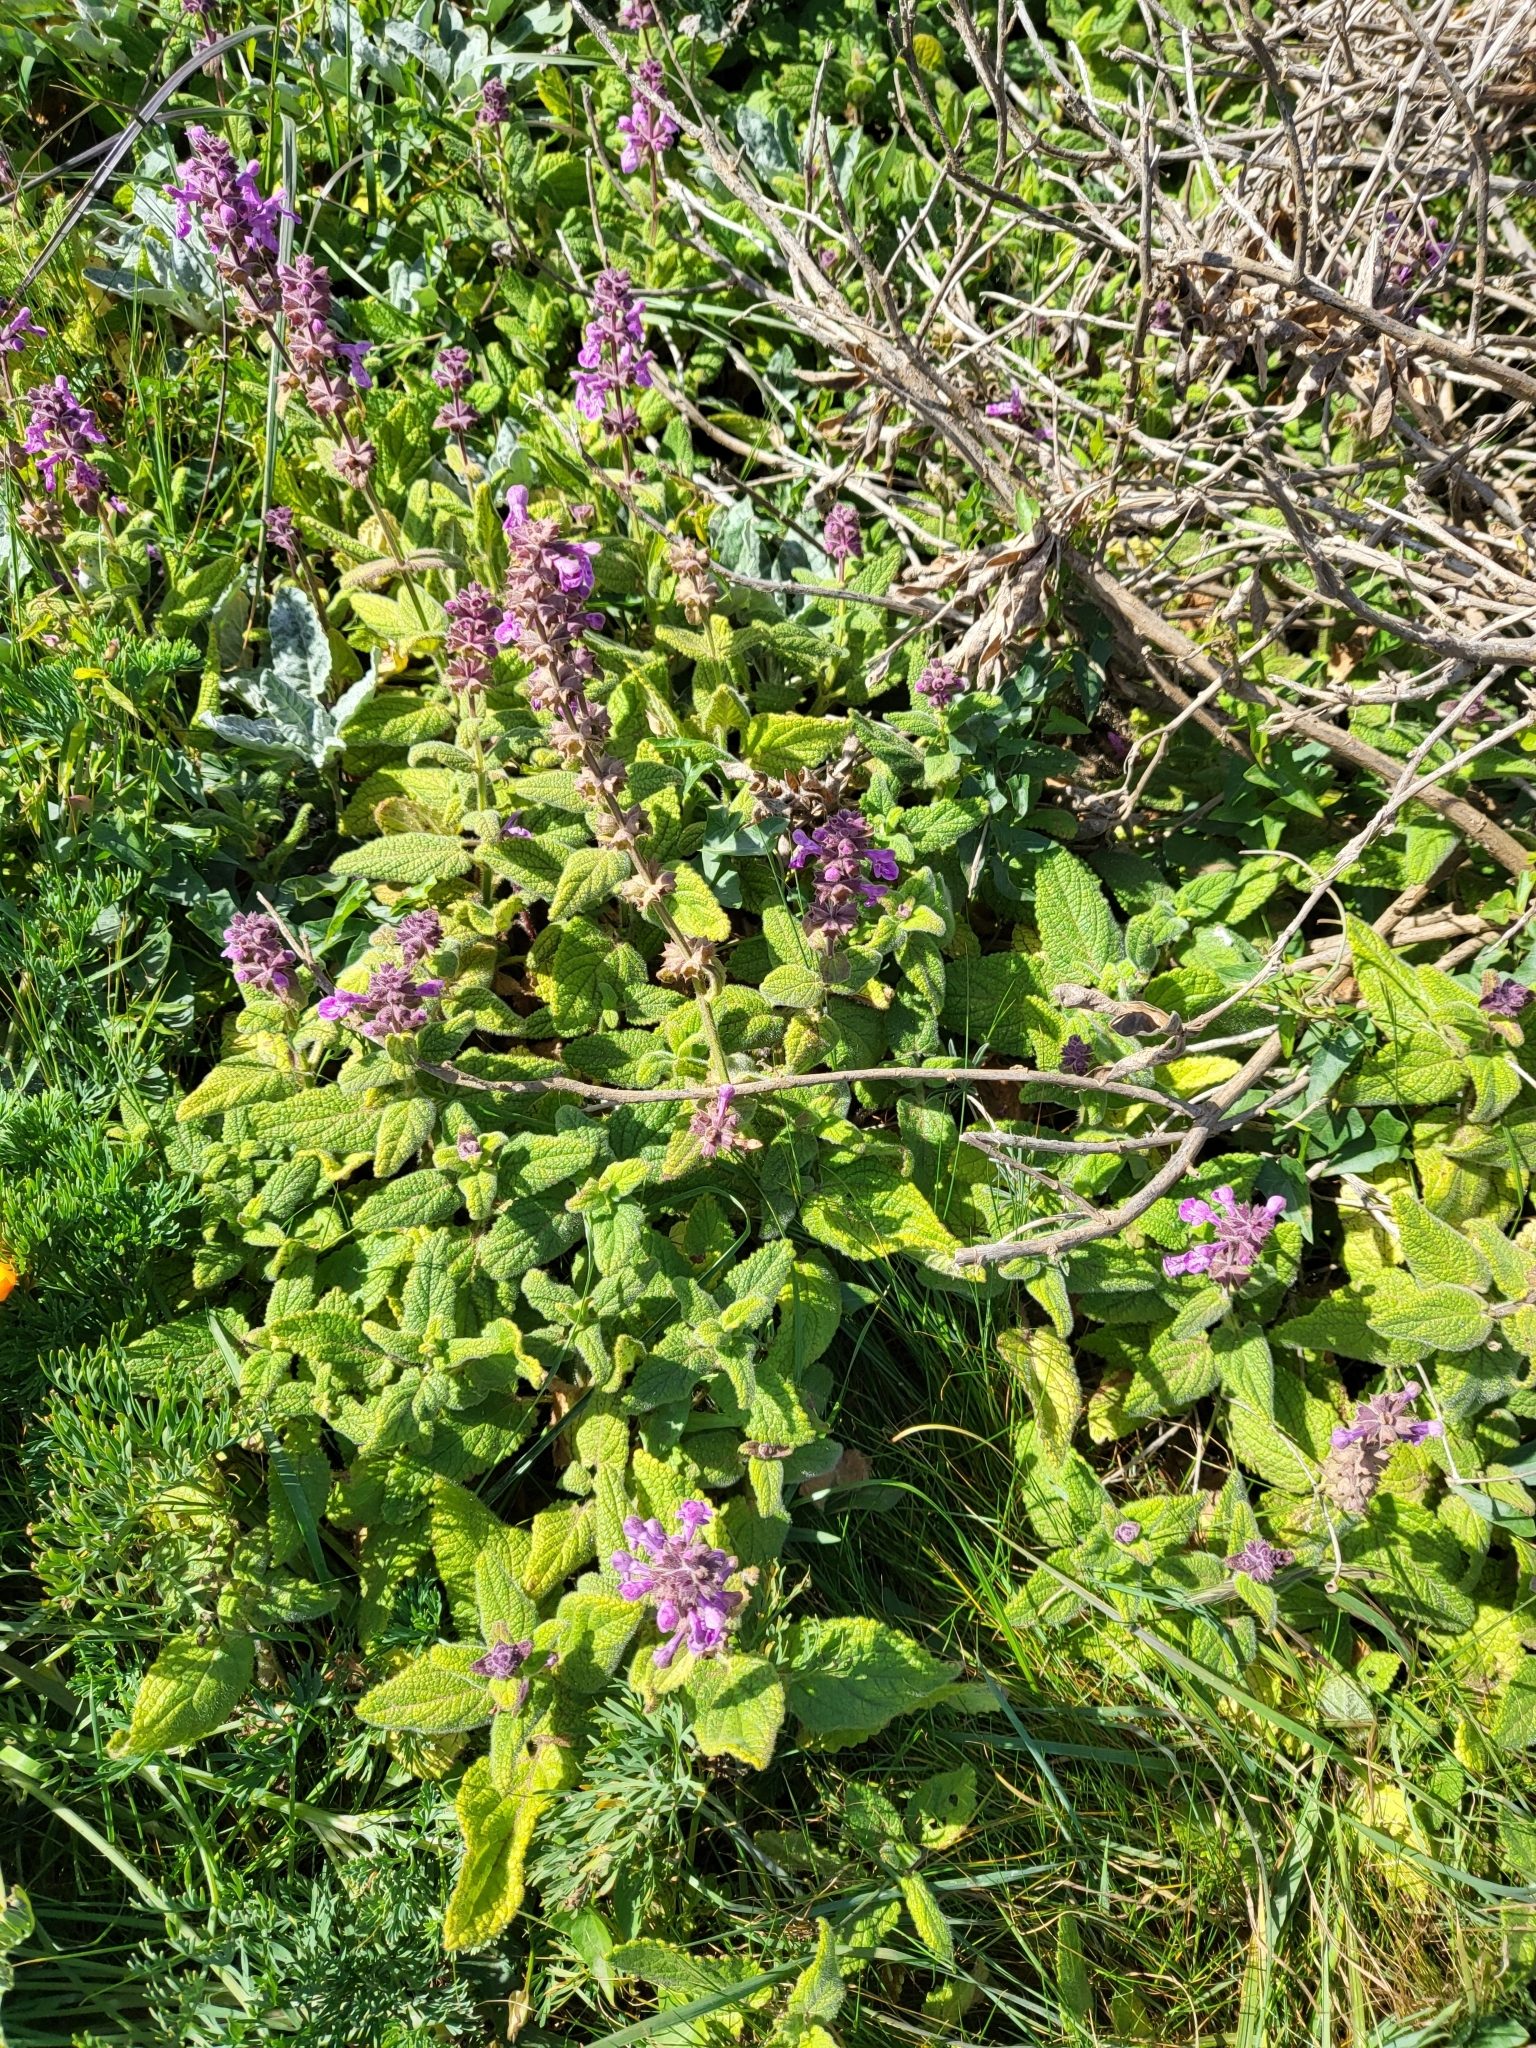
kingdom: Plantae
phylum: Tracheophyta
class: Magnoliopsida
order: Lamiales
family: Lamiaceae
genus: Stachys
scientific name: Stachys chamissonis
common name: Coastal hedge-nettle
